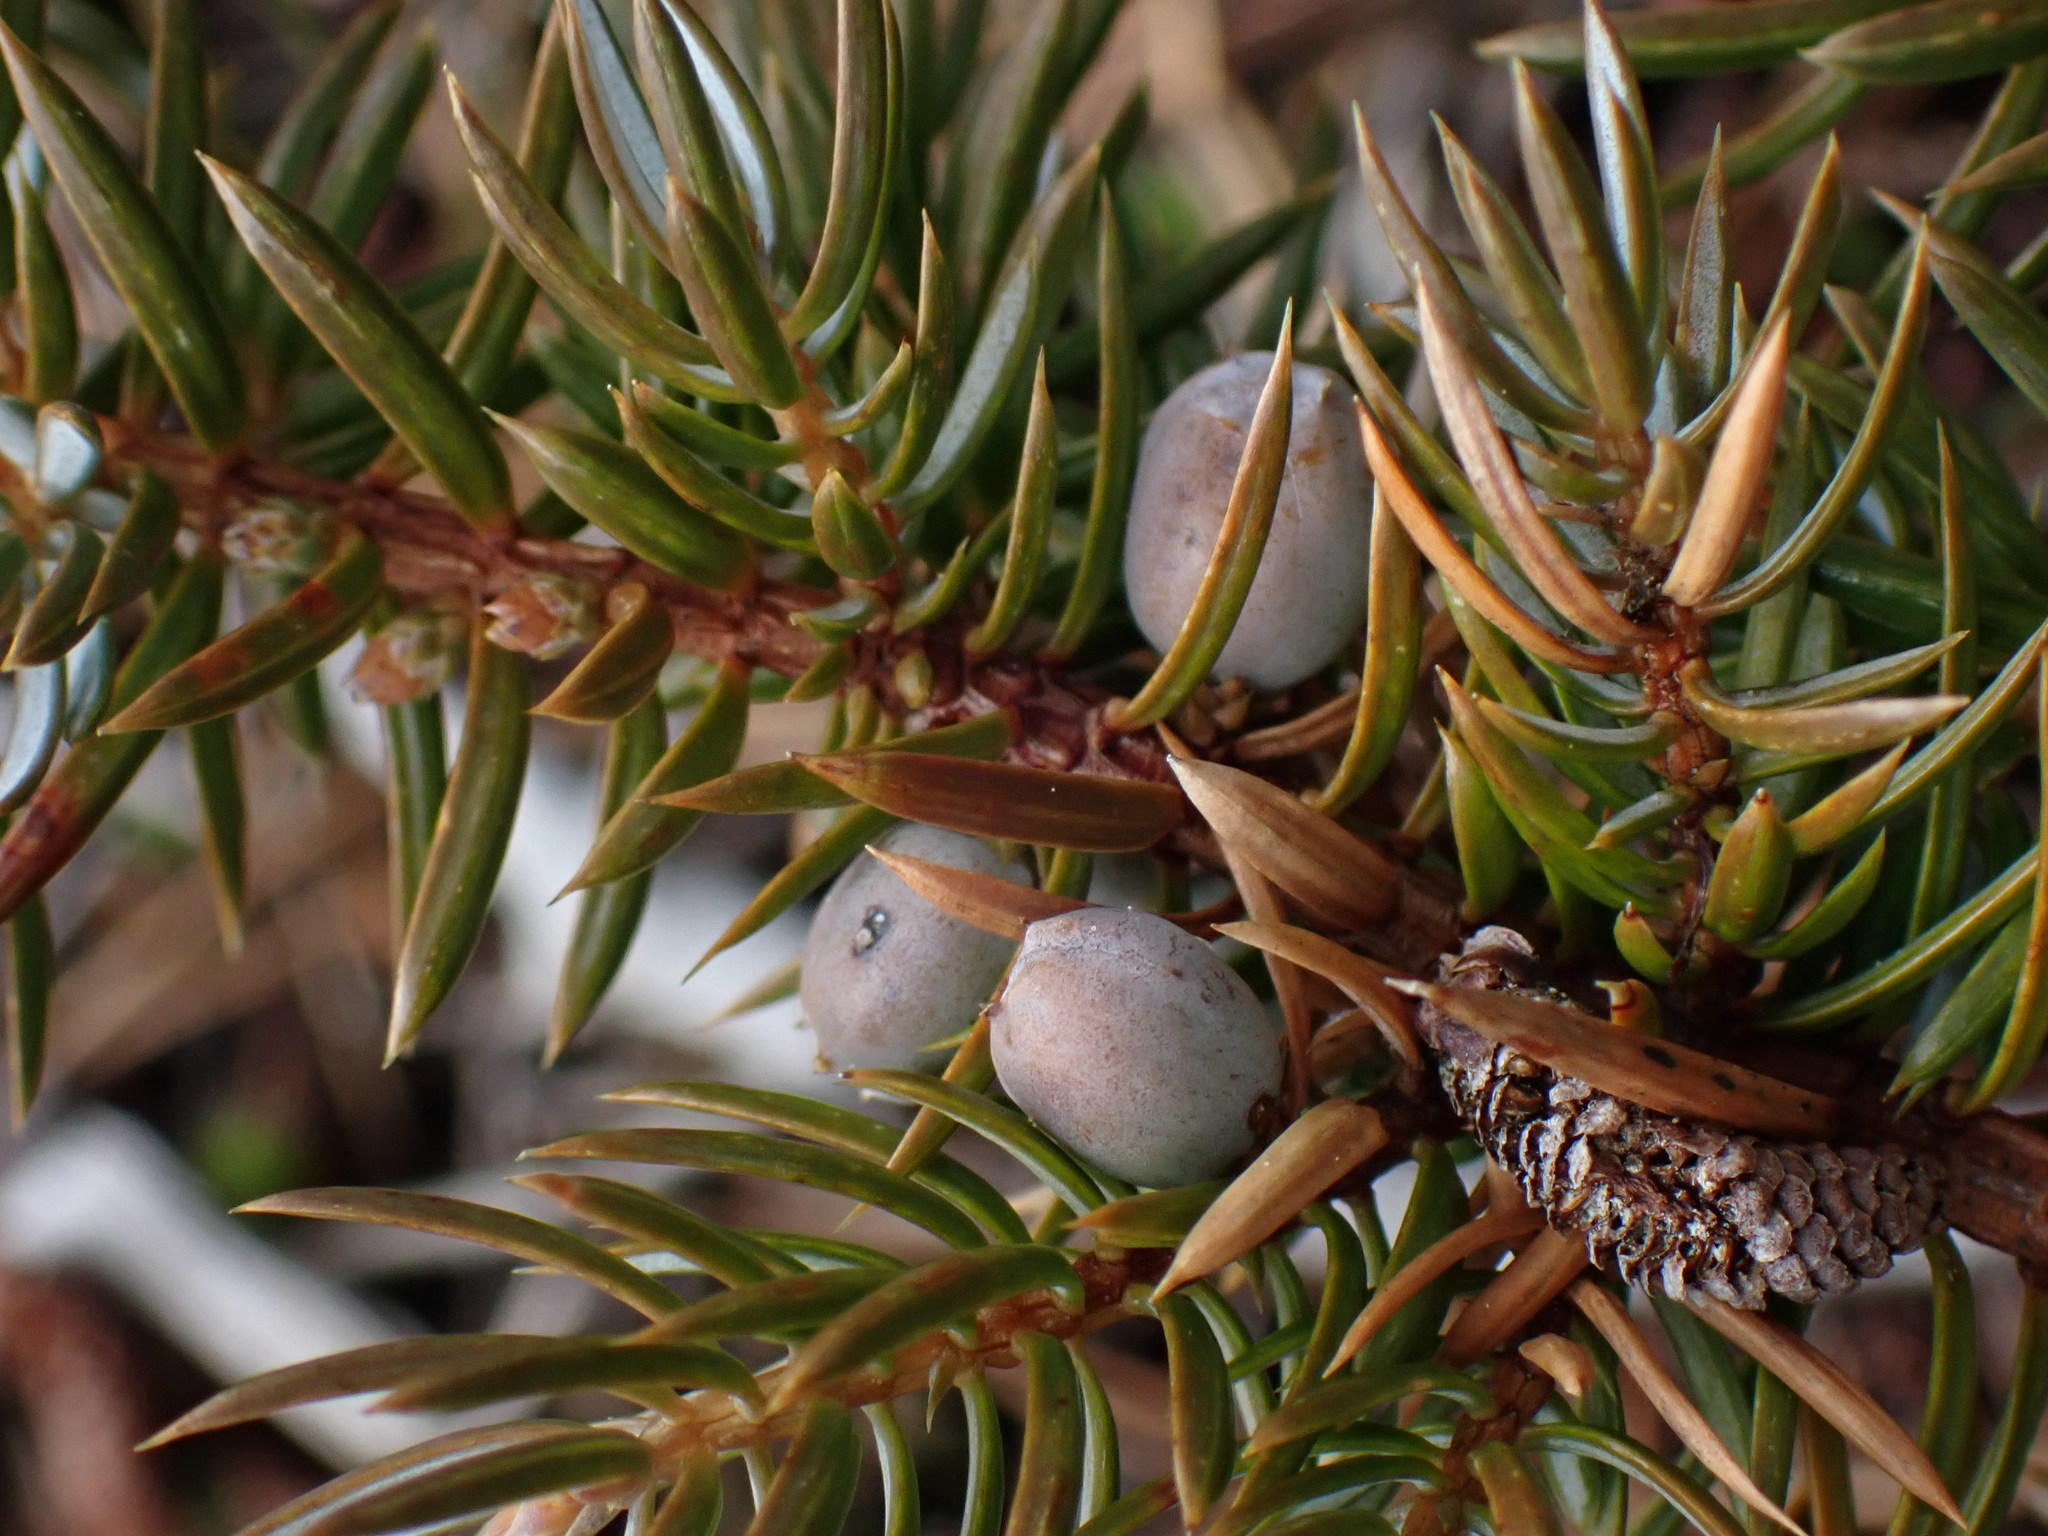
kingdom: Plantae
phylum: Tracheophyta
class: Pinopsida
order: Pinales
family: Cupressaceae
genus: Juniperus
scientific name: Juniperus communis
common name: Common juniper
